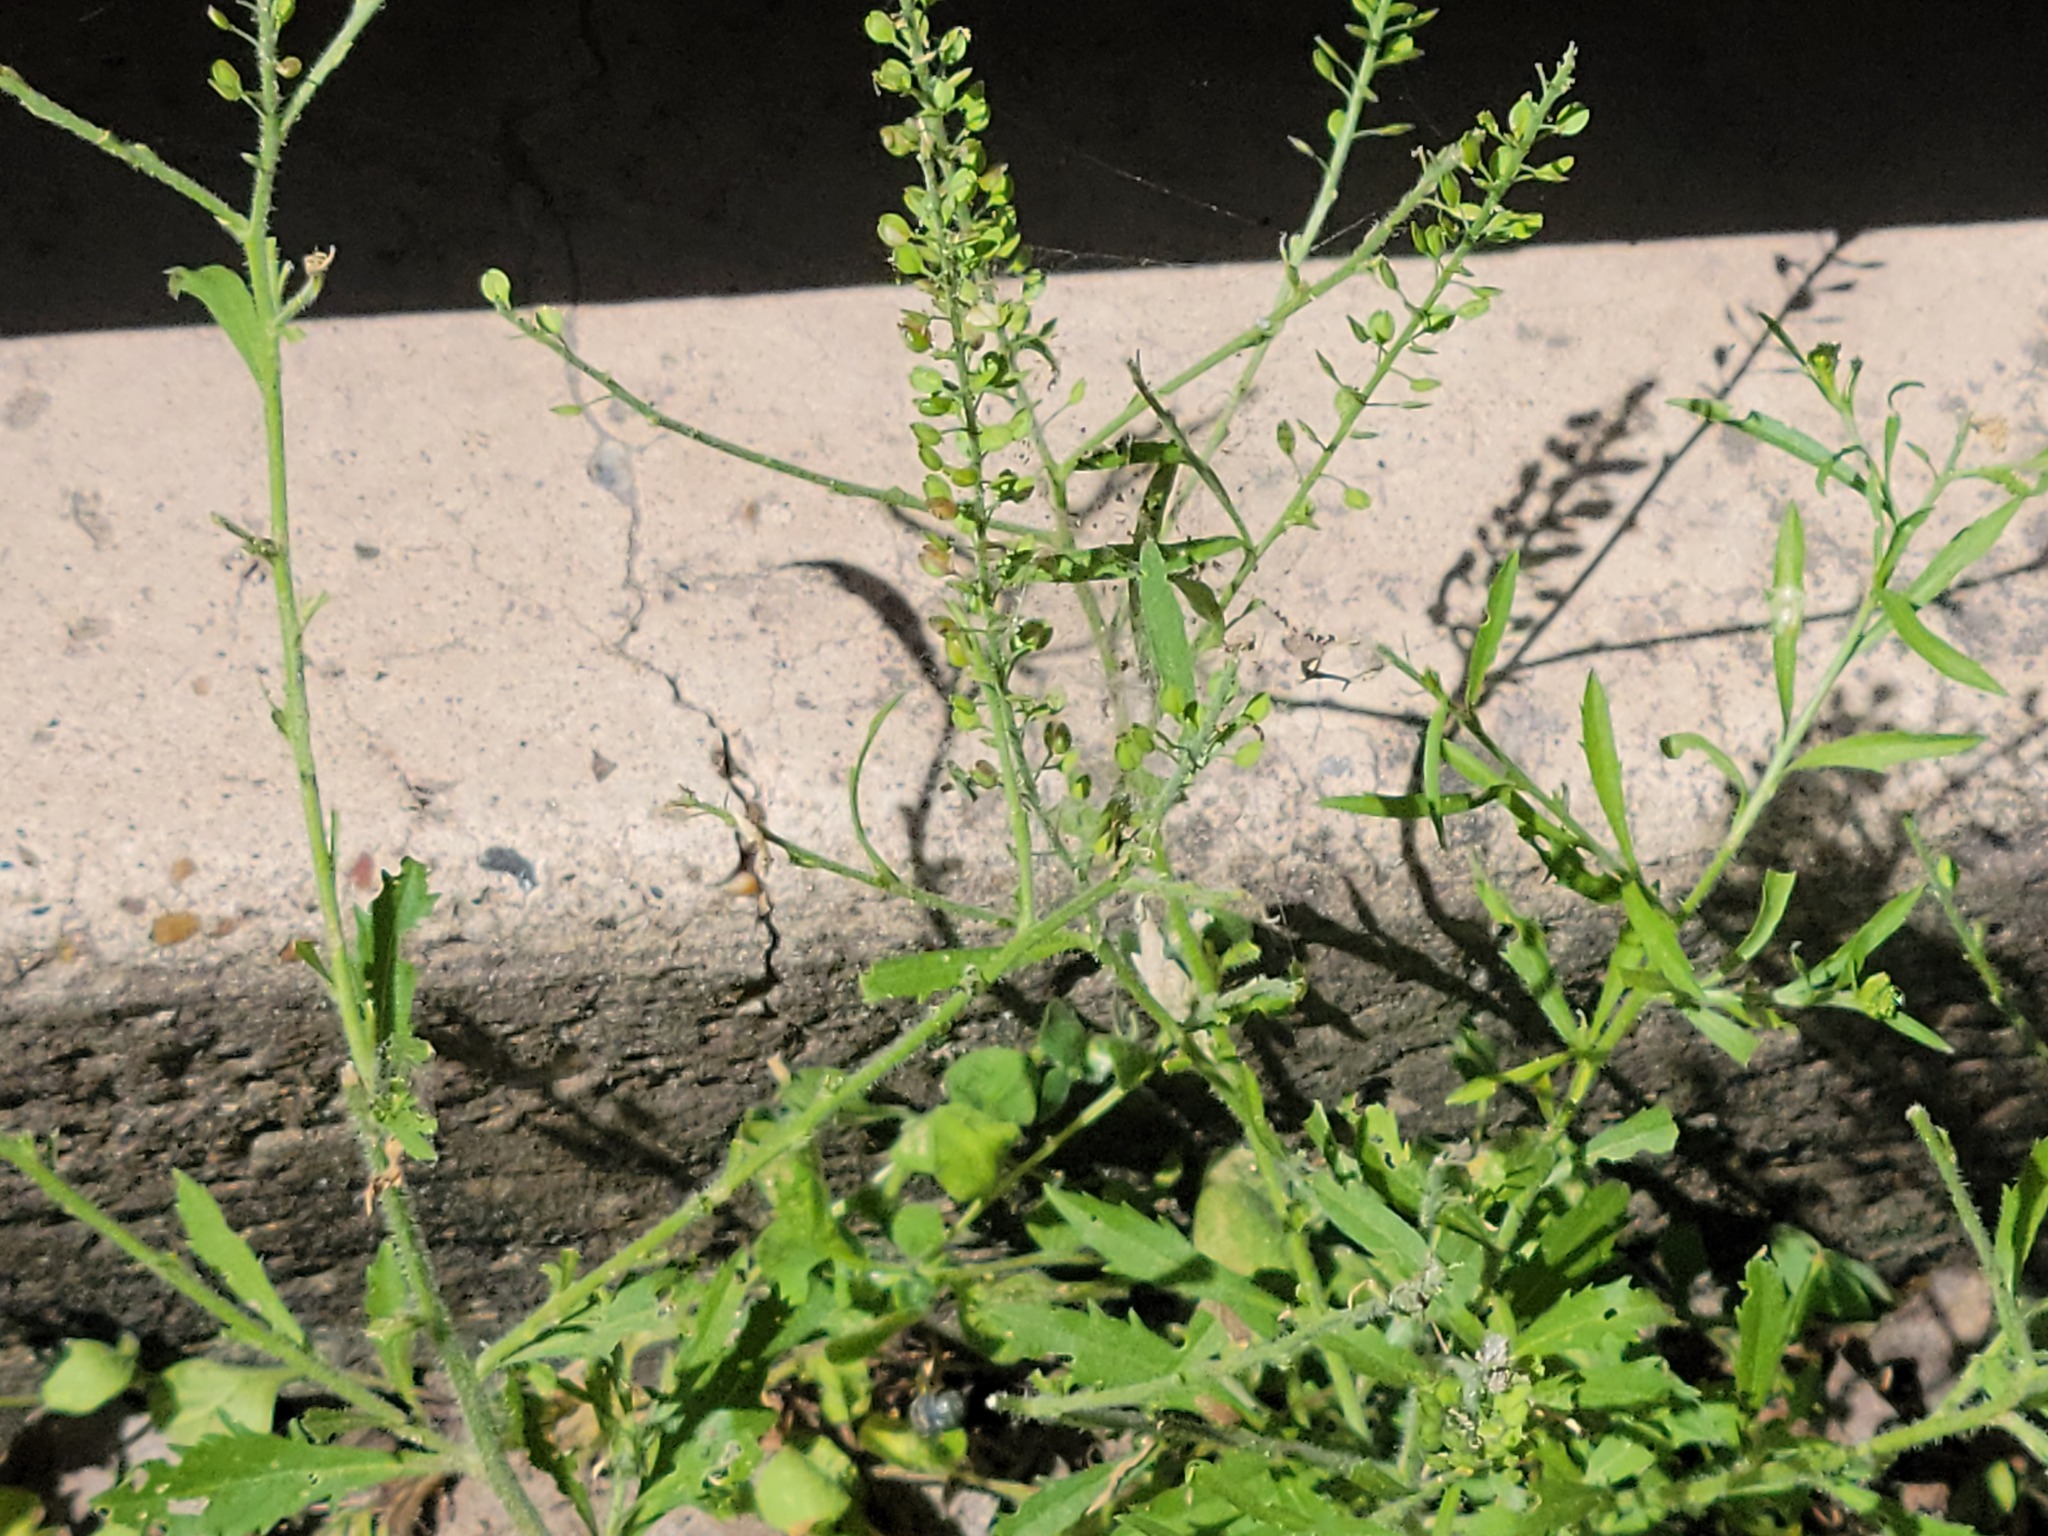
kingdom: Plantae
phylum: Tracheophyta
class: Magnoliopsida
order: Brassicales
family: Brassicaceae
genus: Lepidium
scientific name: Lepidium virginicum
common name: Least pepperwort
